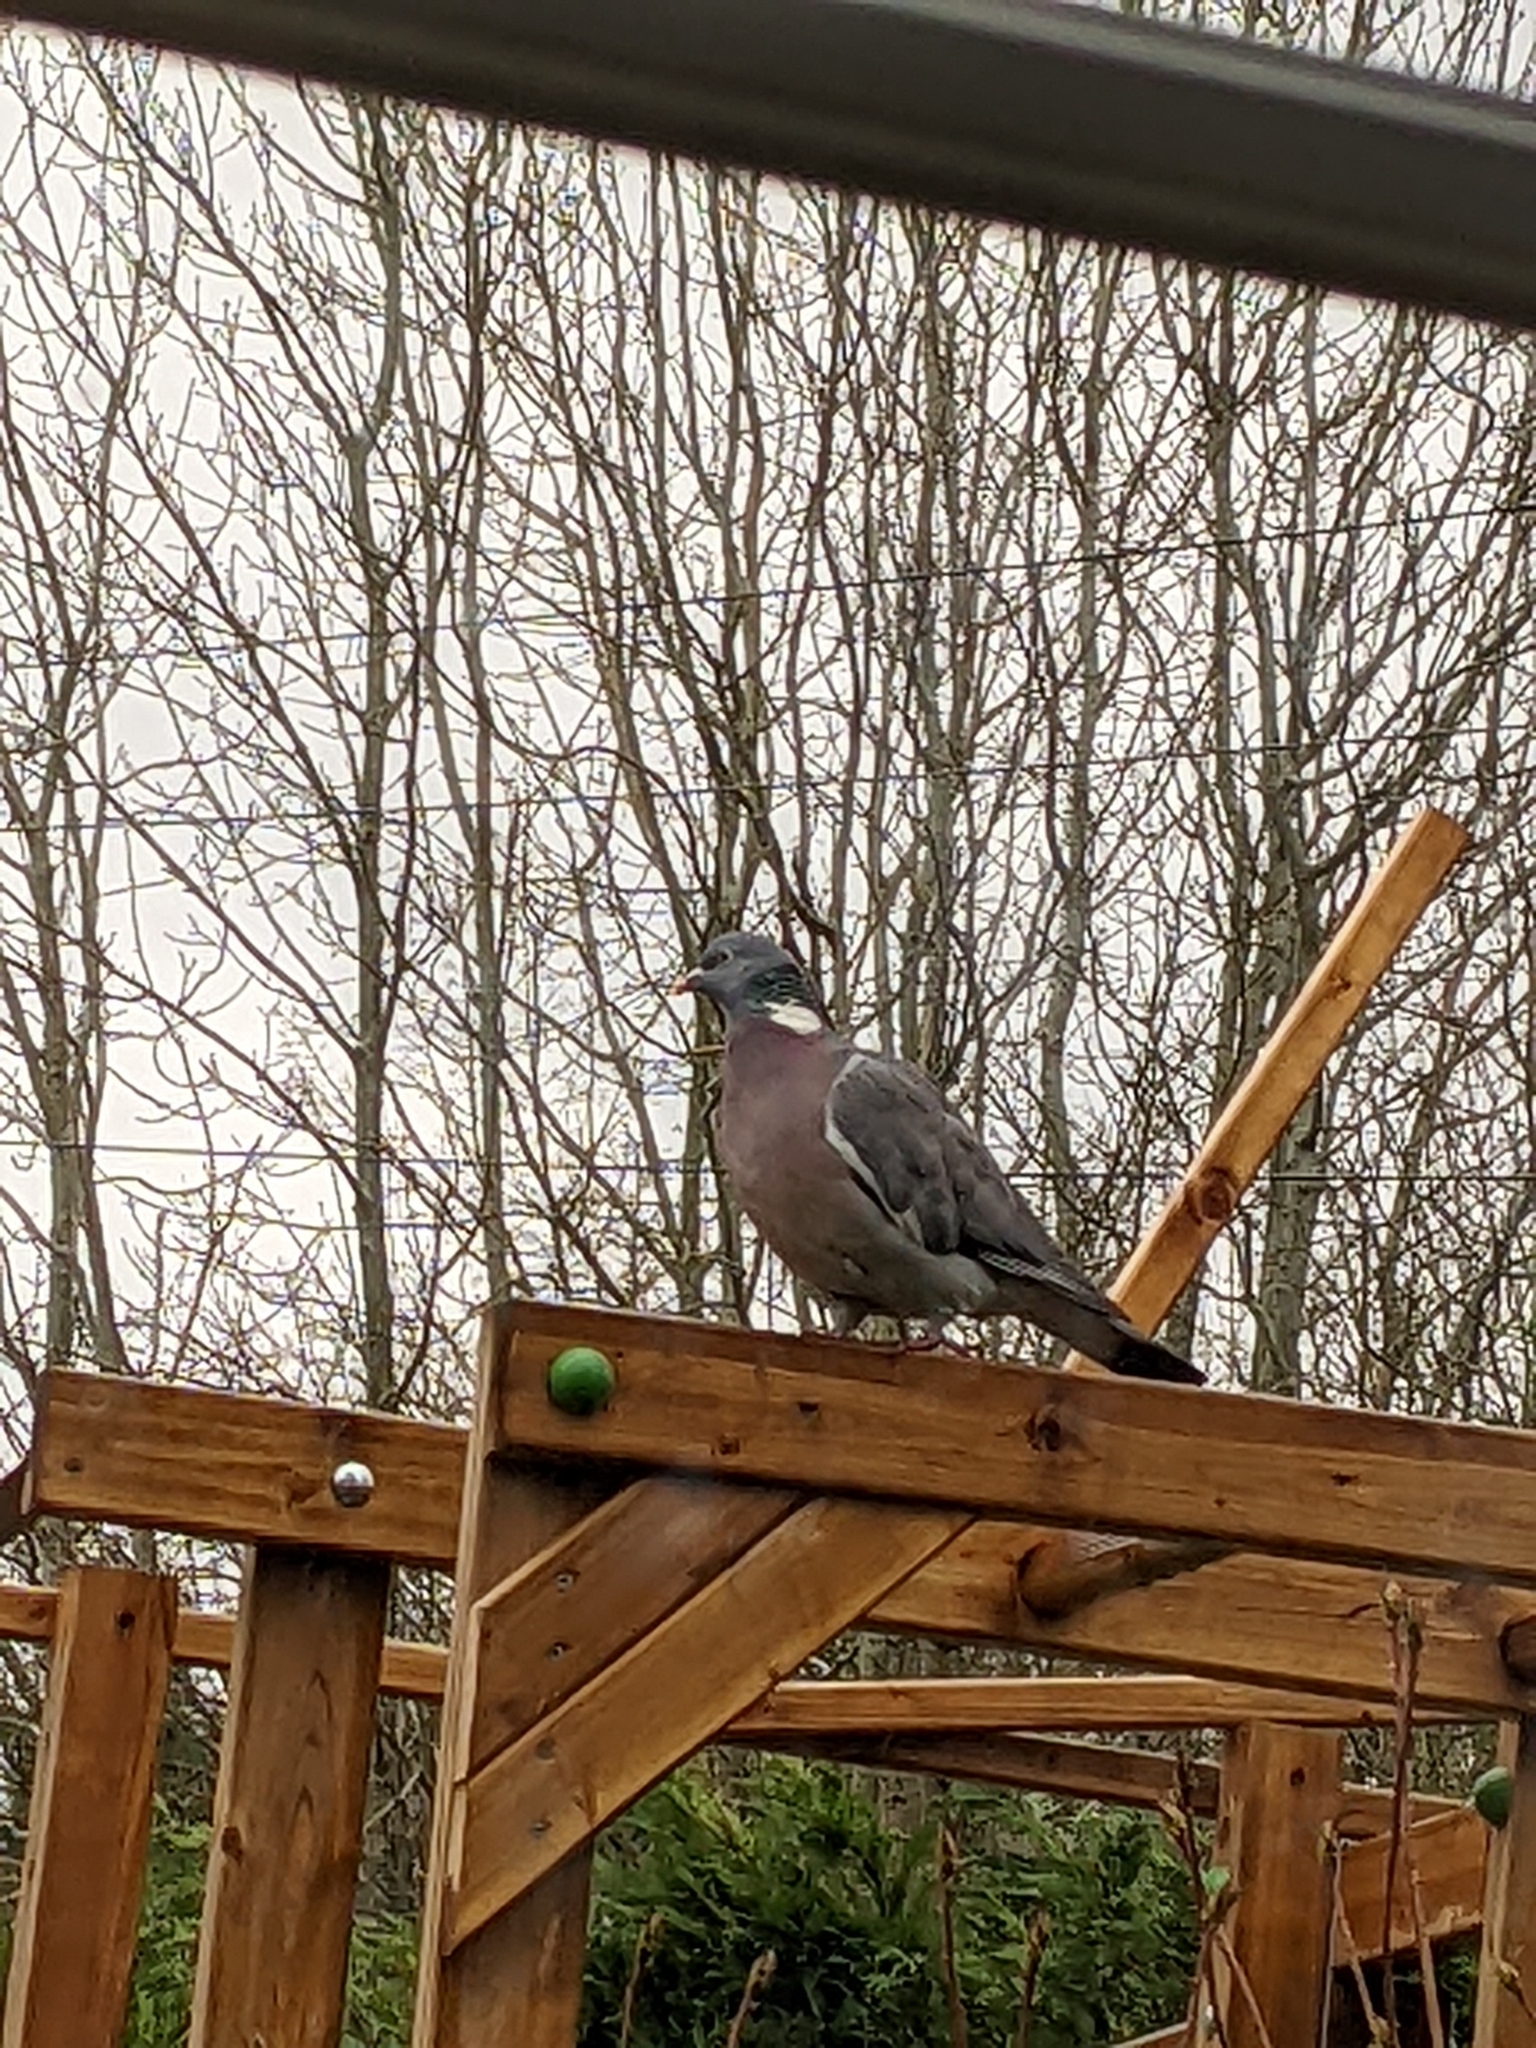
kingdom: Animalia
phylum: Chordata
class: Aves
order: Columbiformes
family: Columbidae
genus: Columba
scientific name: Columba palumbus
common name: Common wood pigeon
